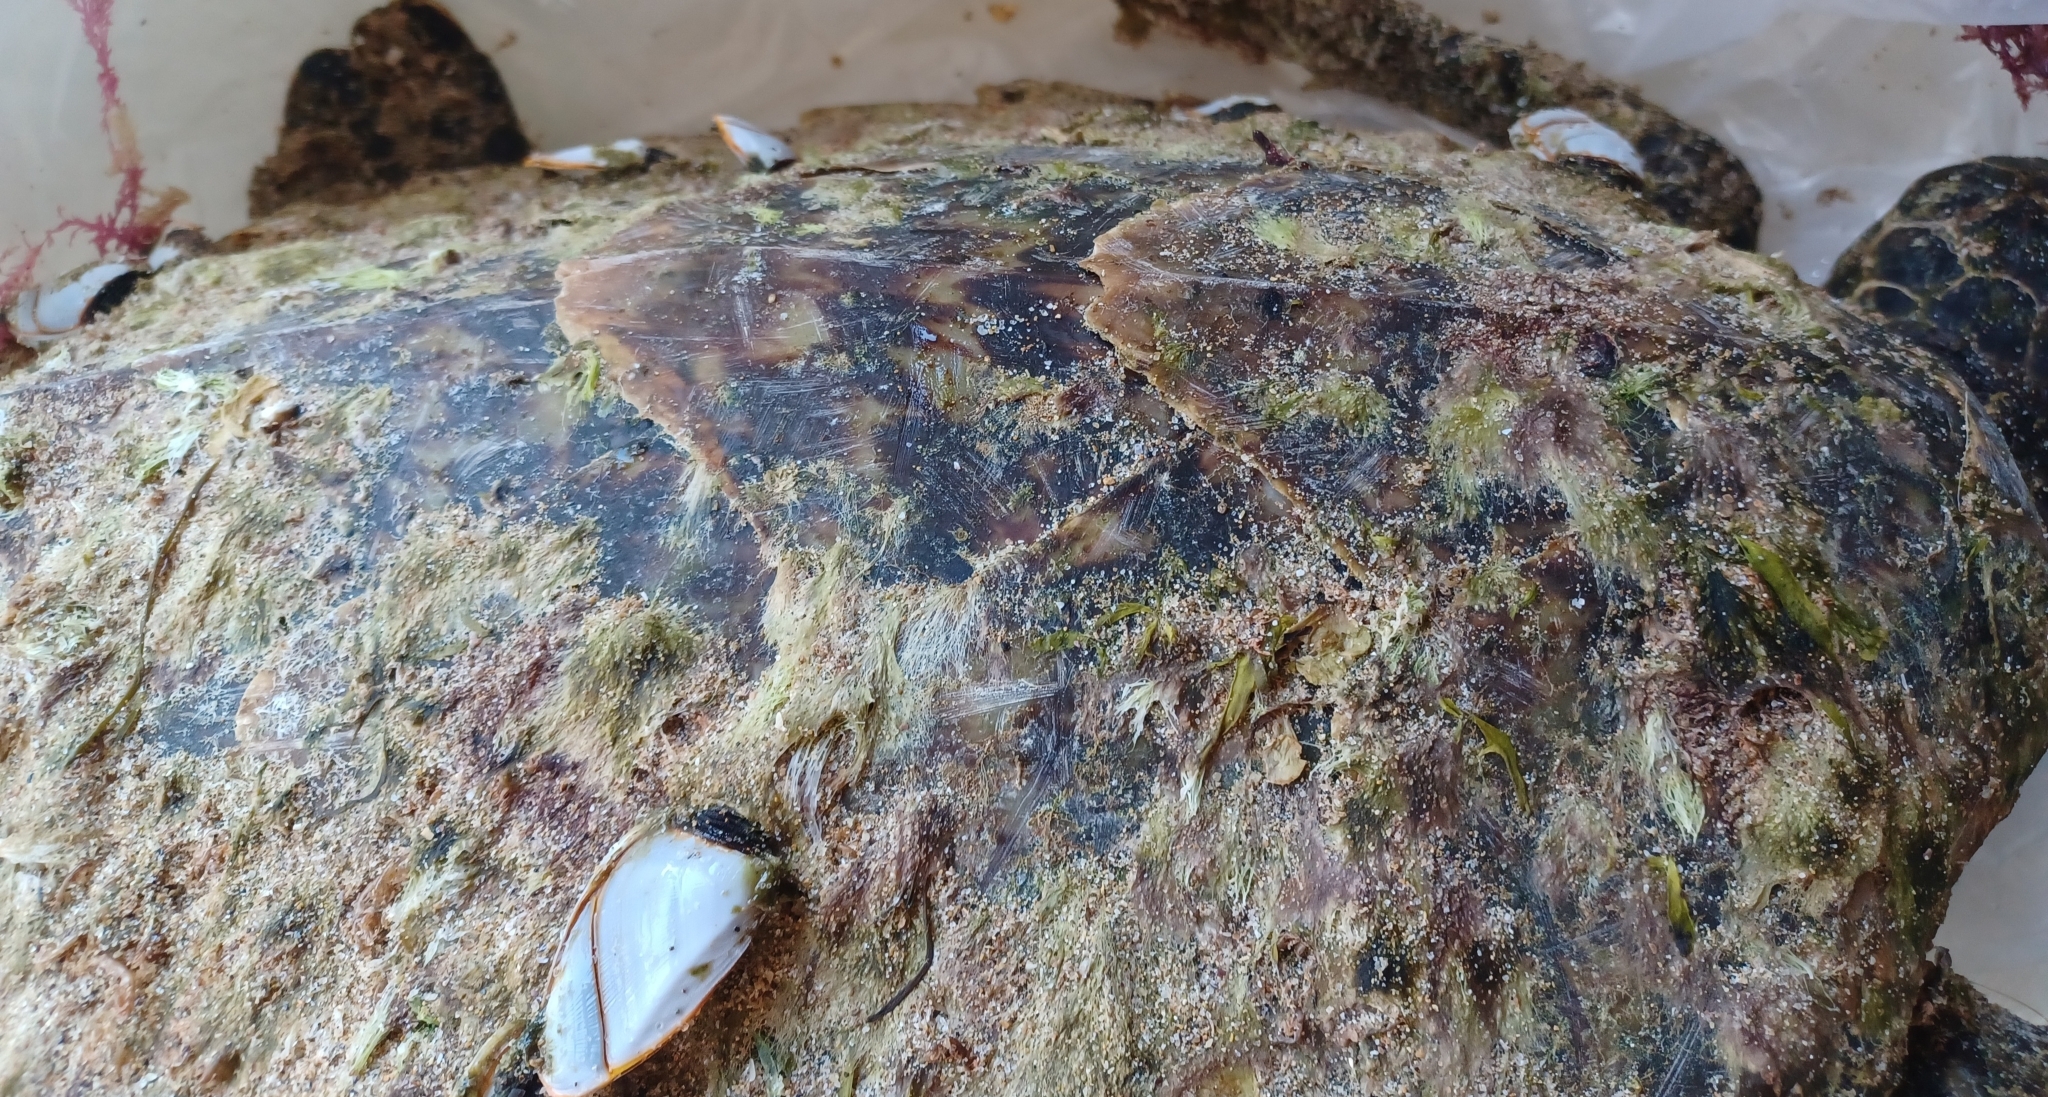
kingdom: Animalia
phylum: Chordata
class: Testudines
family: Cheloniidae
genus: Eretmochelys
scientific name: Eretmochelys imbricata
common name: Hawksbill turtle
